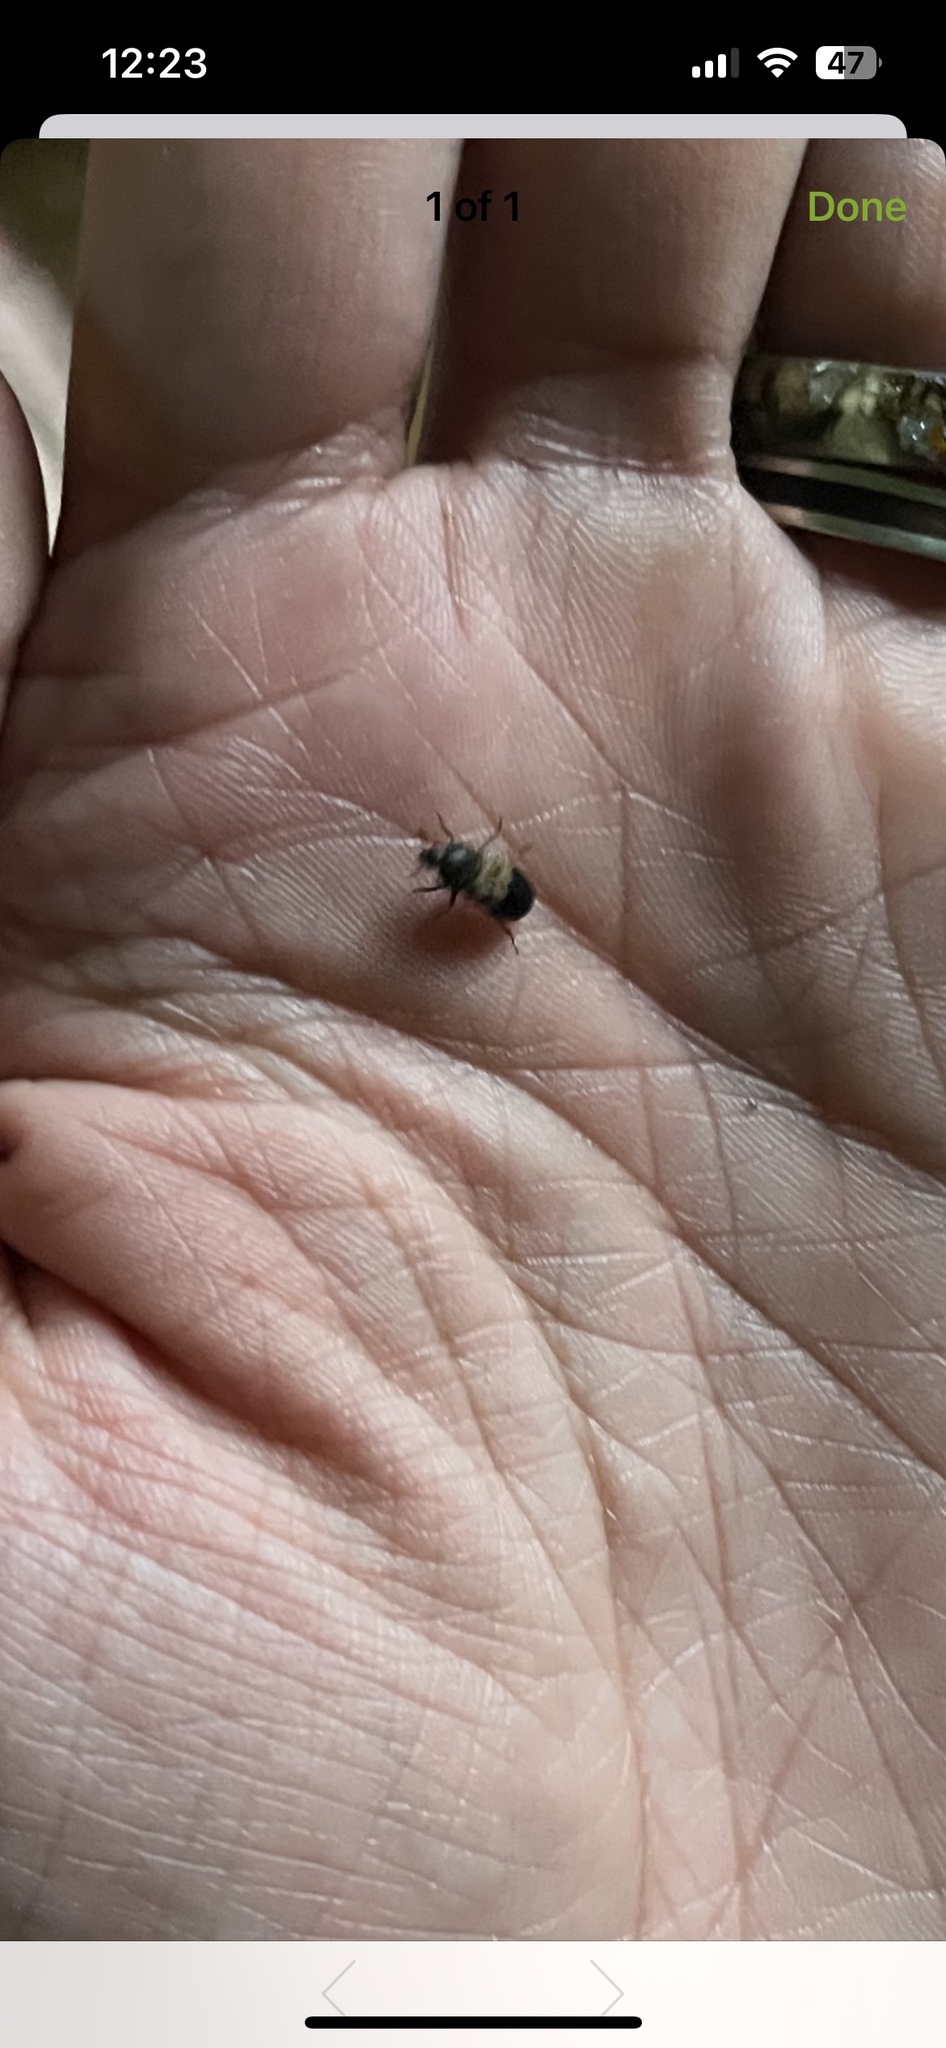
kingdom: Animalia
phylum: Arthropoda
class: Insecta
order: Coleoptera
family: Dermestidae
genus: Dermestes
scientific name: Dermestes lardarius
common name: Larder beetle
